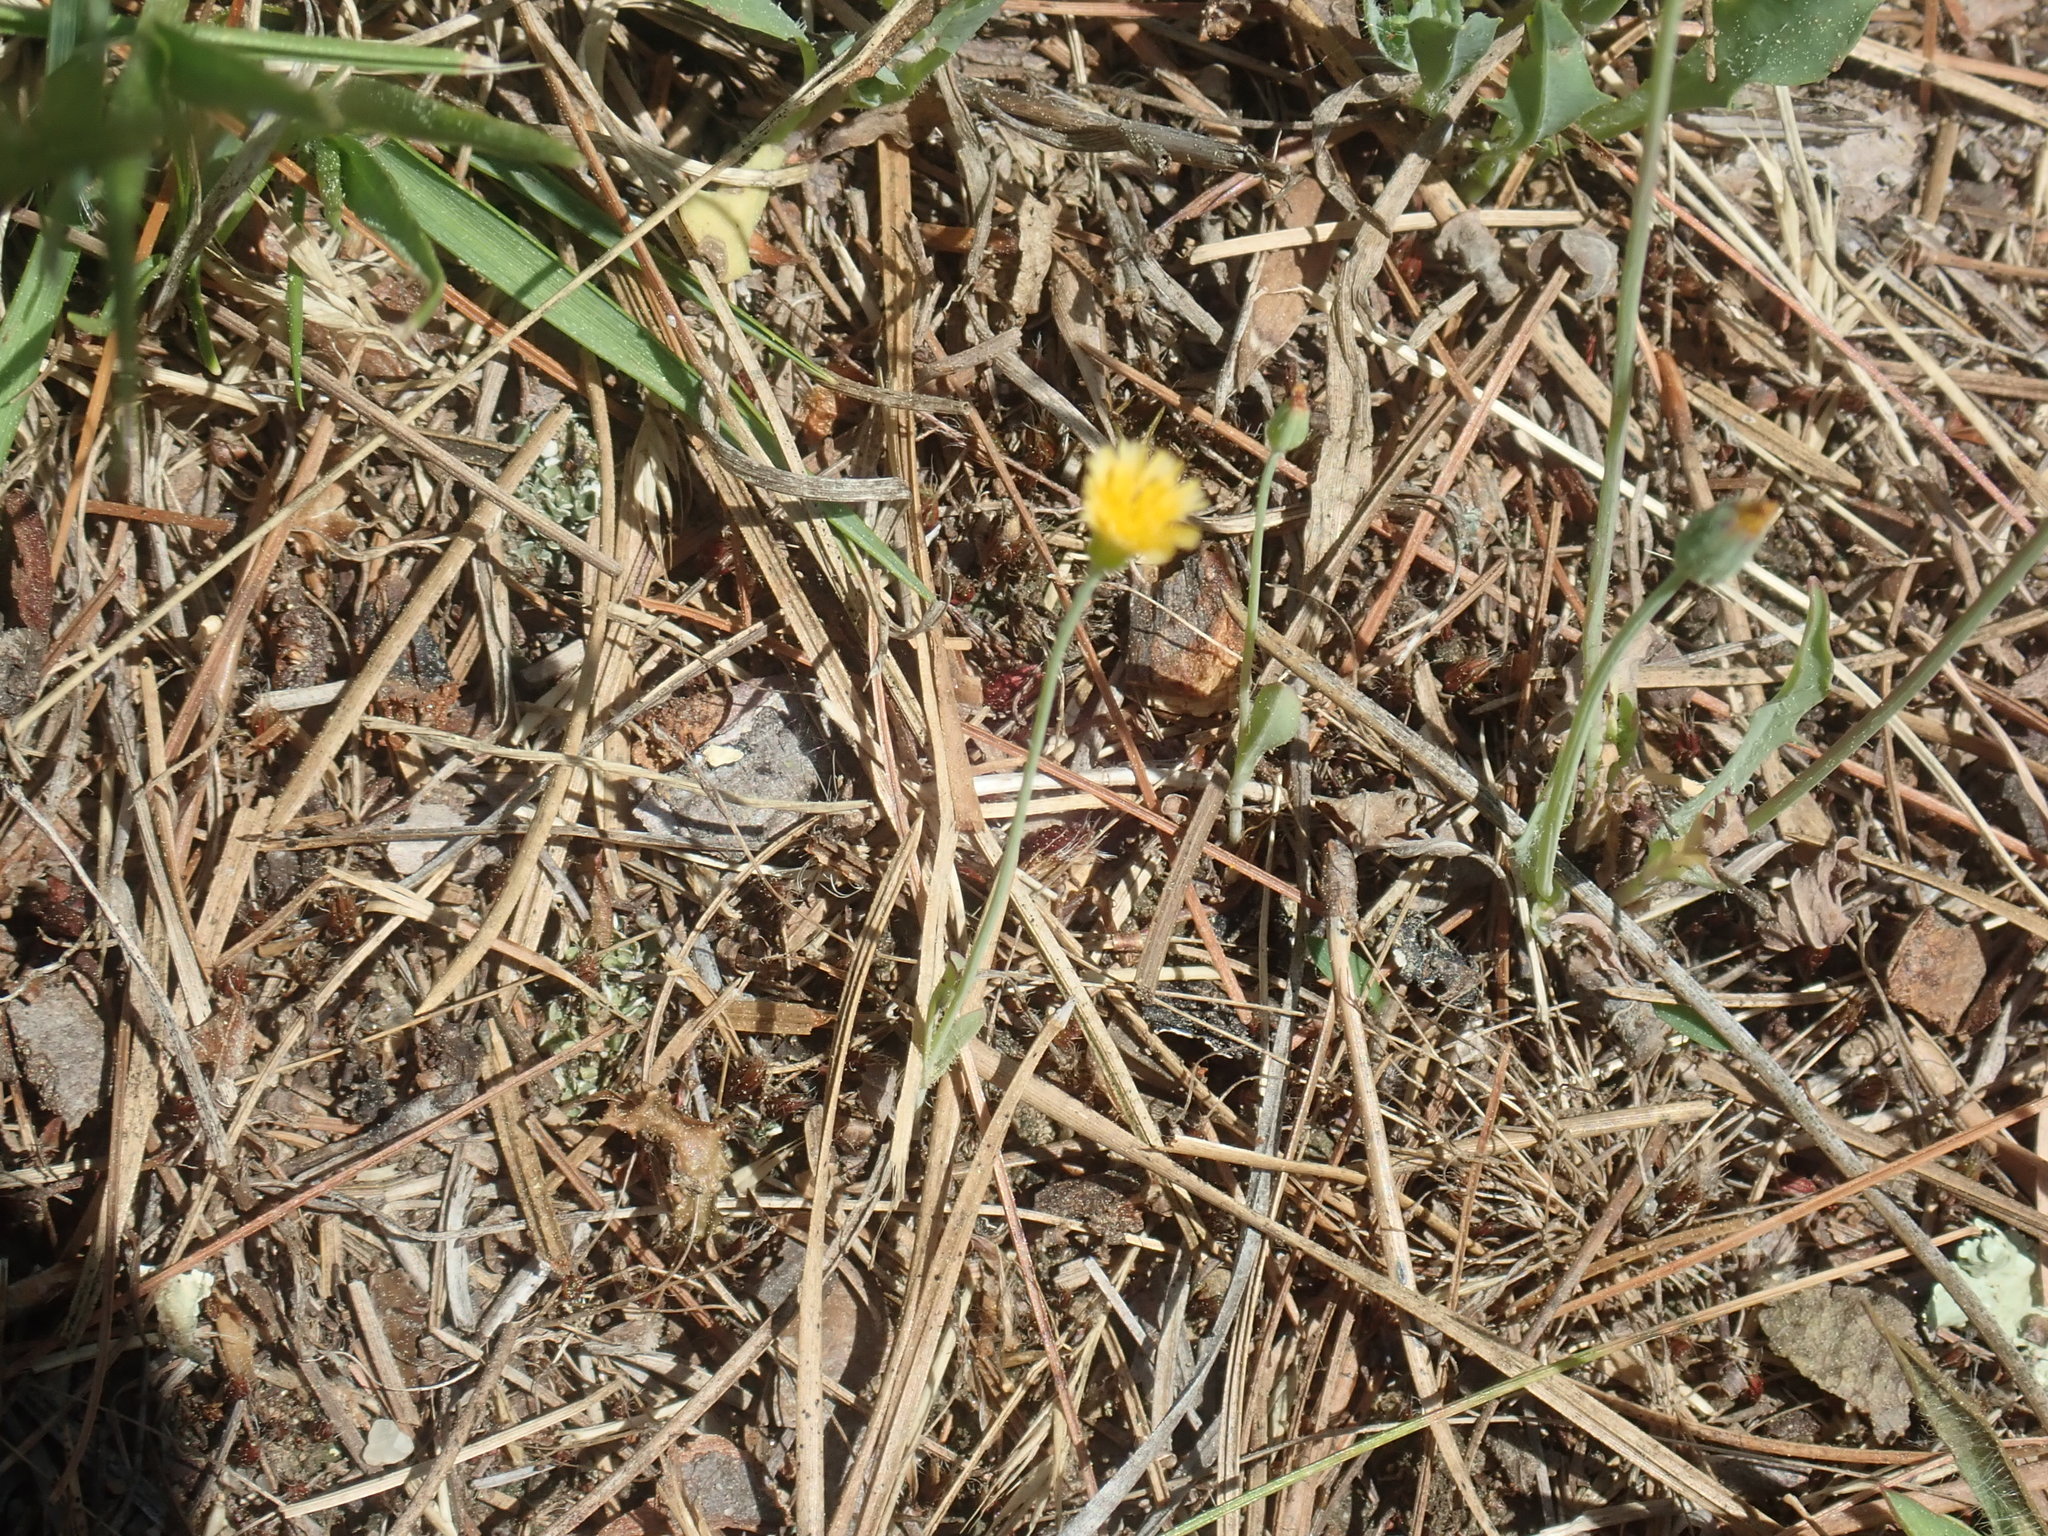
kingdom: Plantae
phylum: Tracheophyta
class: Magnoliopsida
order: Asterales
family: Asteraceae
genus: Krigia
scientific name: Krigia virginica
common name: Virginia dwarf-dandelion
